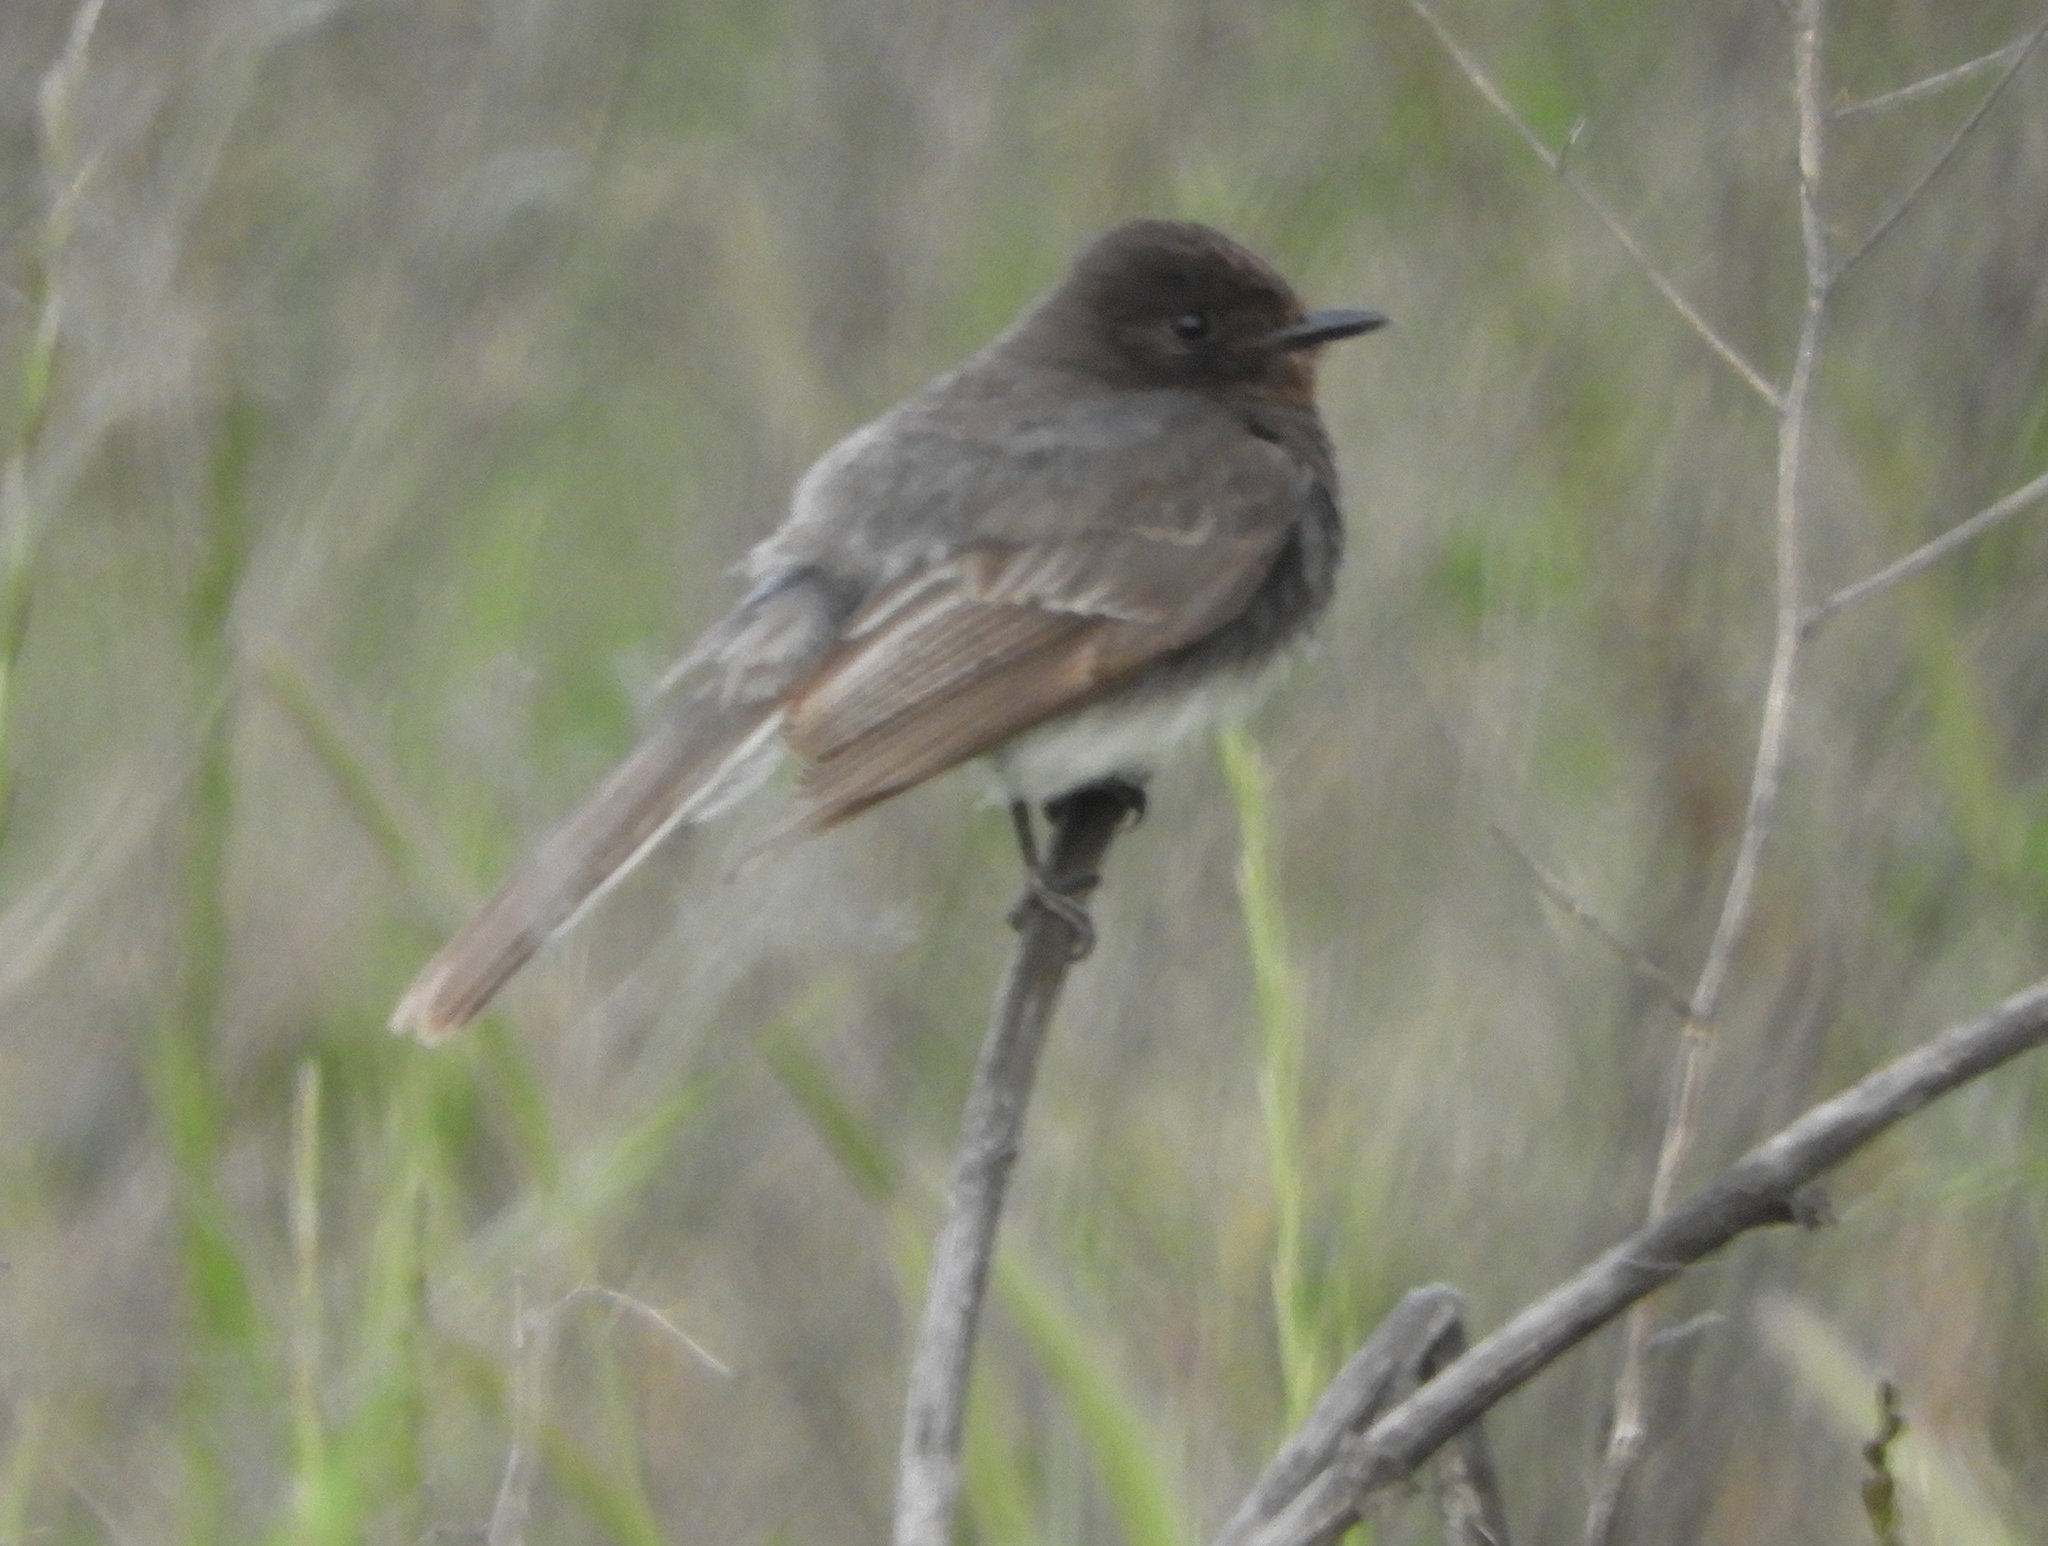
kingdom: Animalia
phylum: Chordata
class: Aves
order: Passeriformes
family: Tyrannidae
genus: Sayornis
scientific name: Sayornis nigricans
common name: Black phoebe
